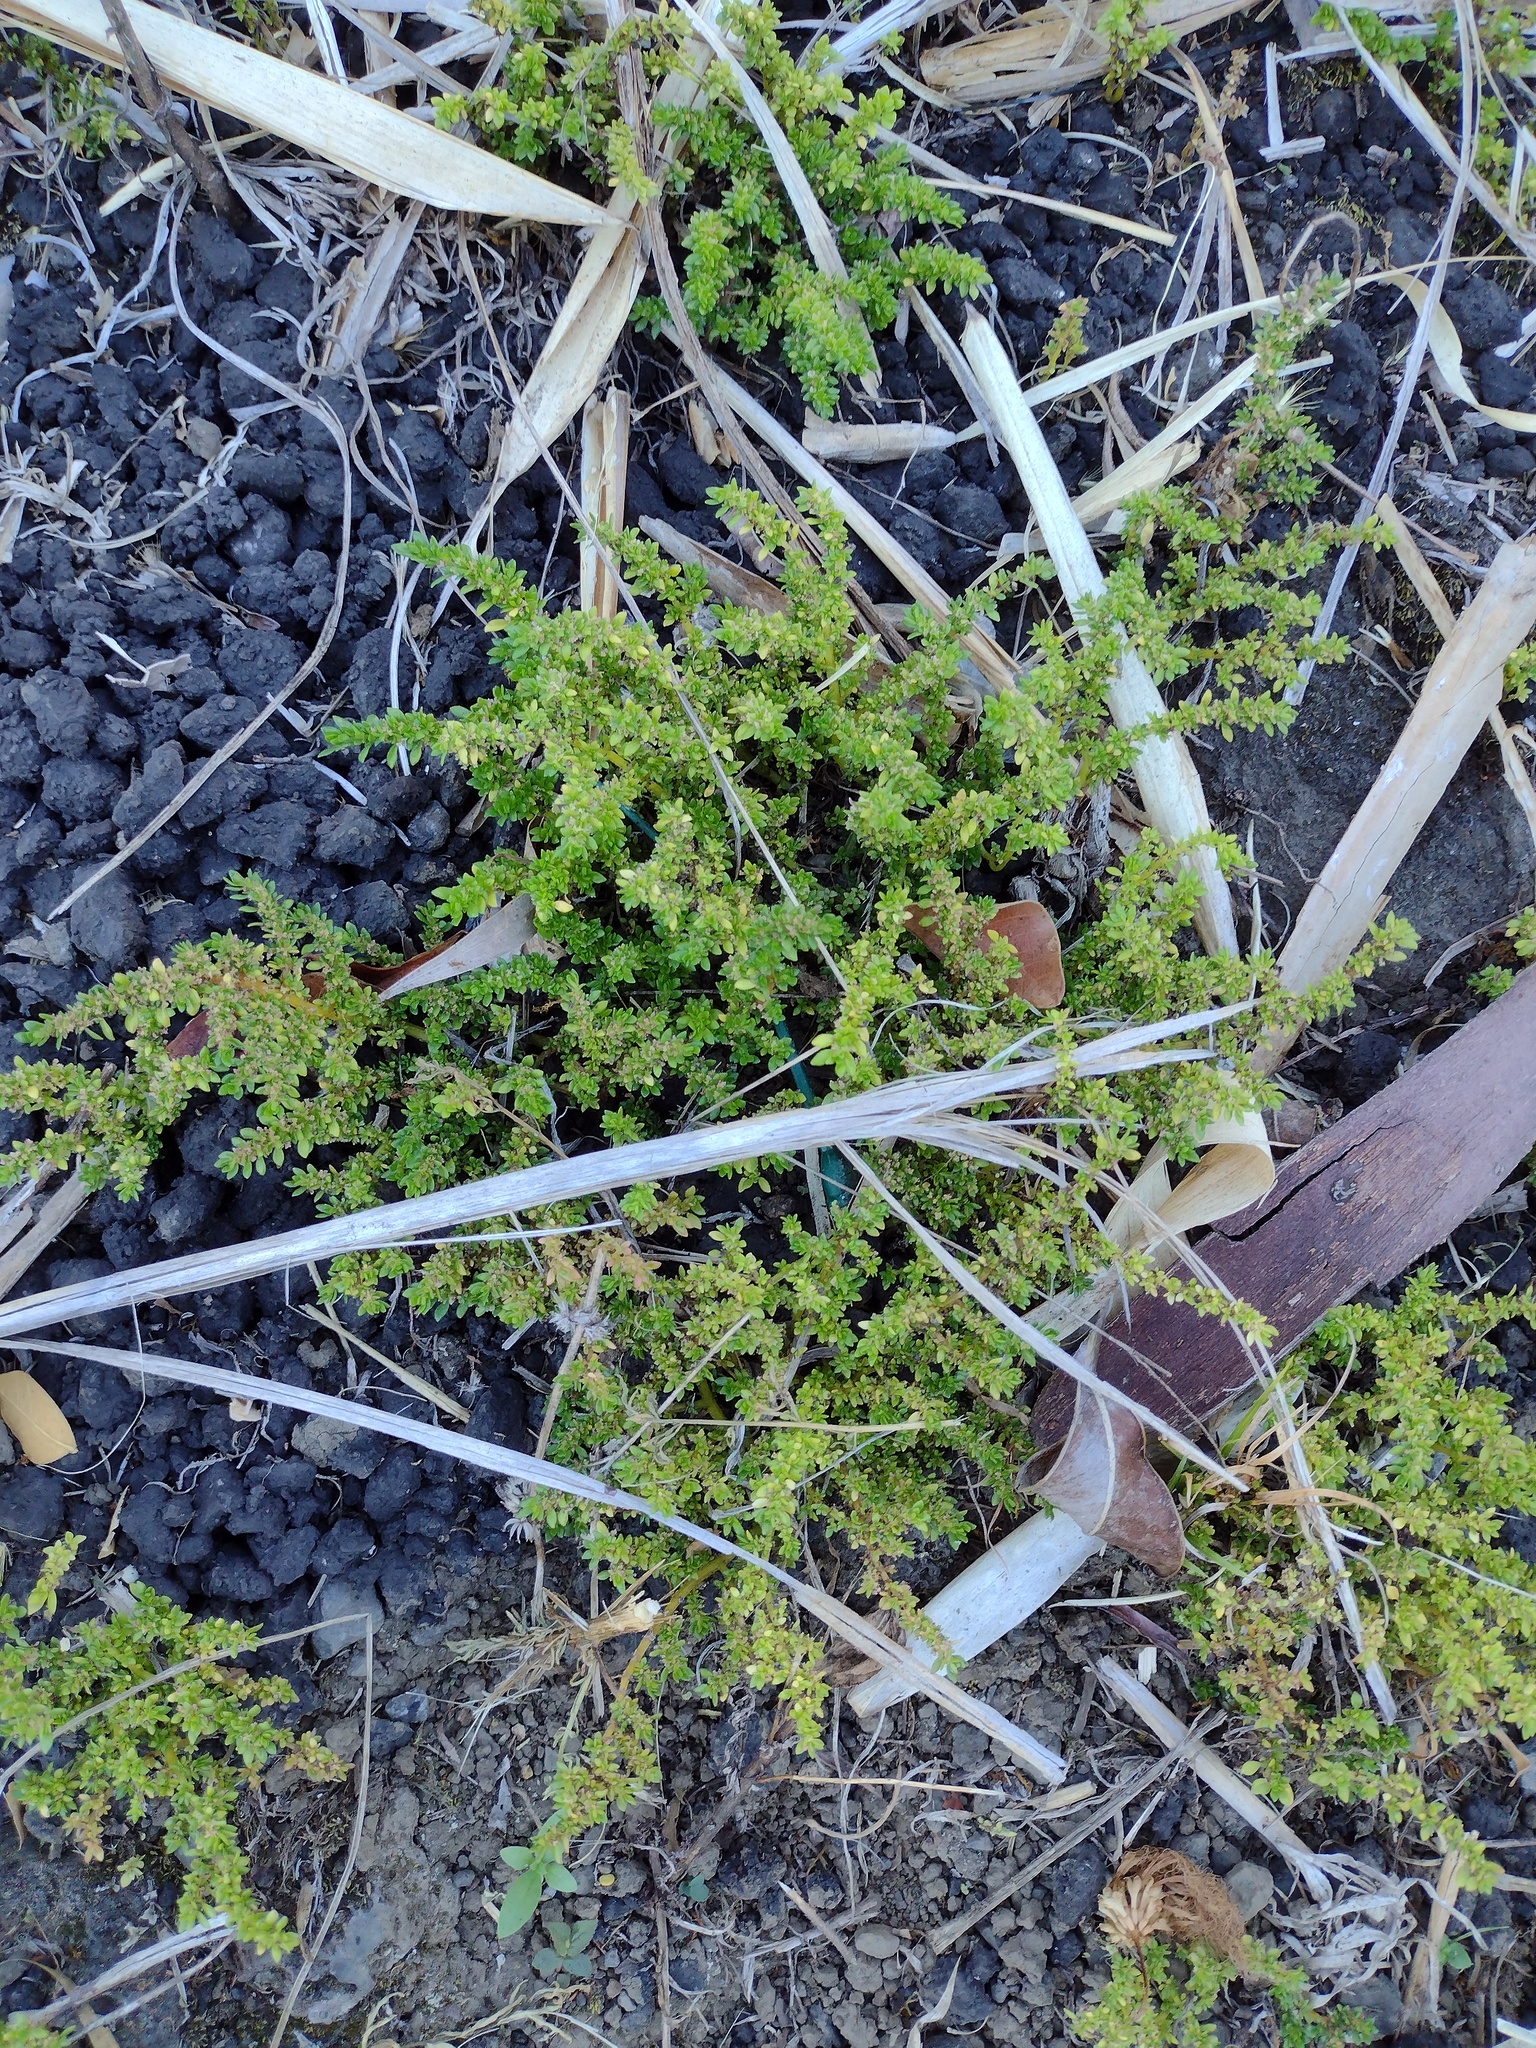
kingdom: Plantae
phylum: Tracheophyta
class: Magnoliopsida
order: Rosales
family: Urticaceae
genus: Pilea
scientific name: Pilea microphylla
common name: Artillery-plant
